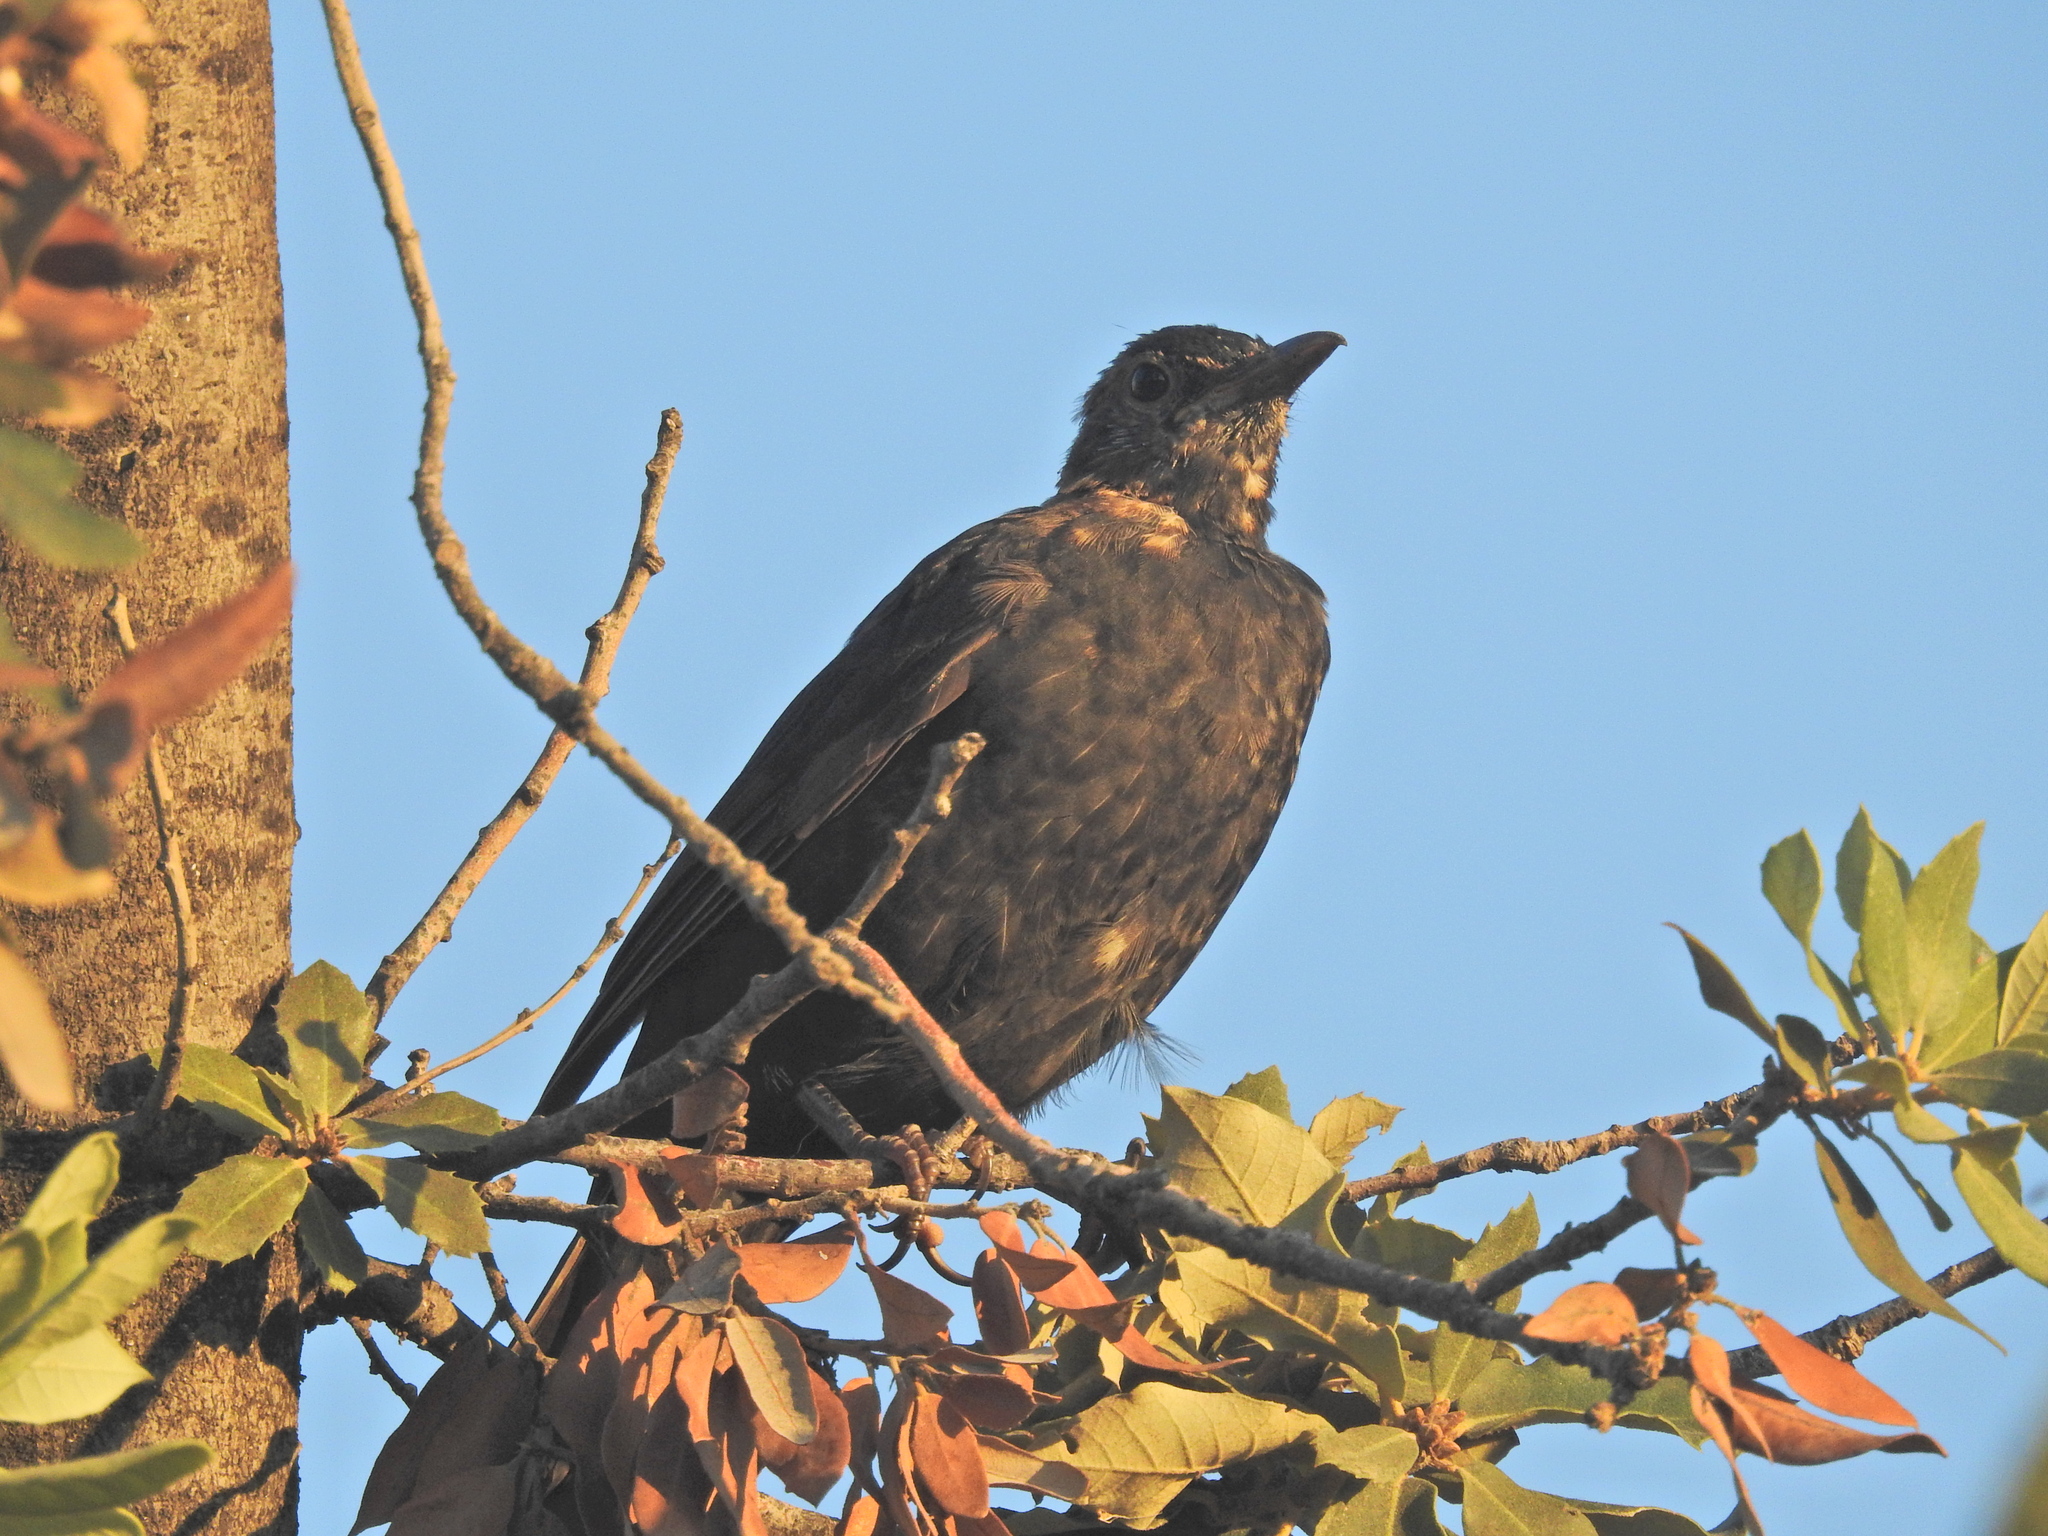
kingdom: Animalia
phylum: Chordata
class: Aves
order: Passeriformes
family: Turdidae
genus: Turdus
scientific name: Turdus merula
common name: Common blackbird
